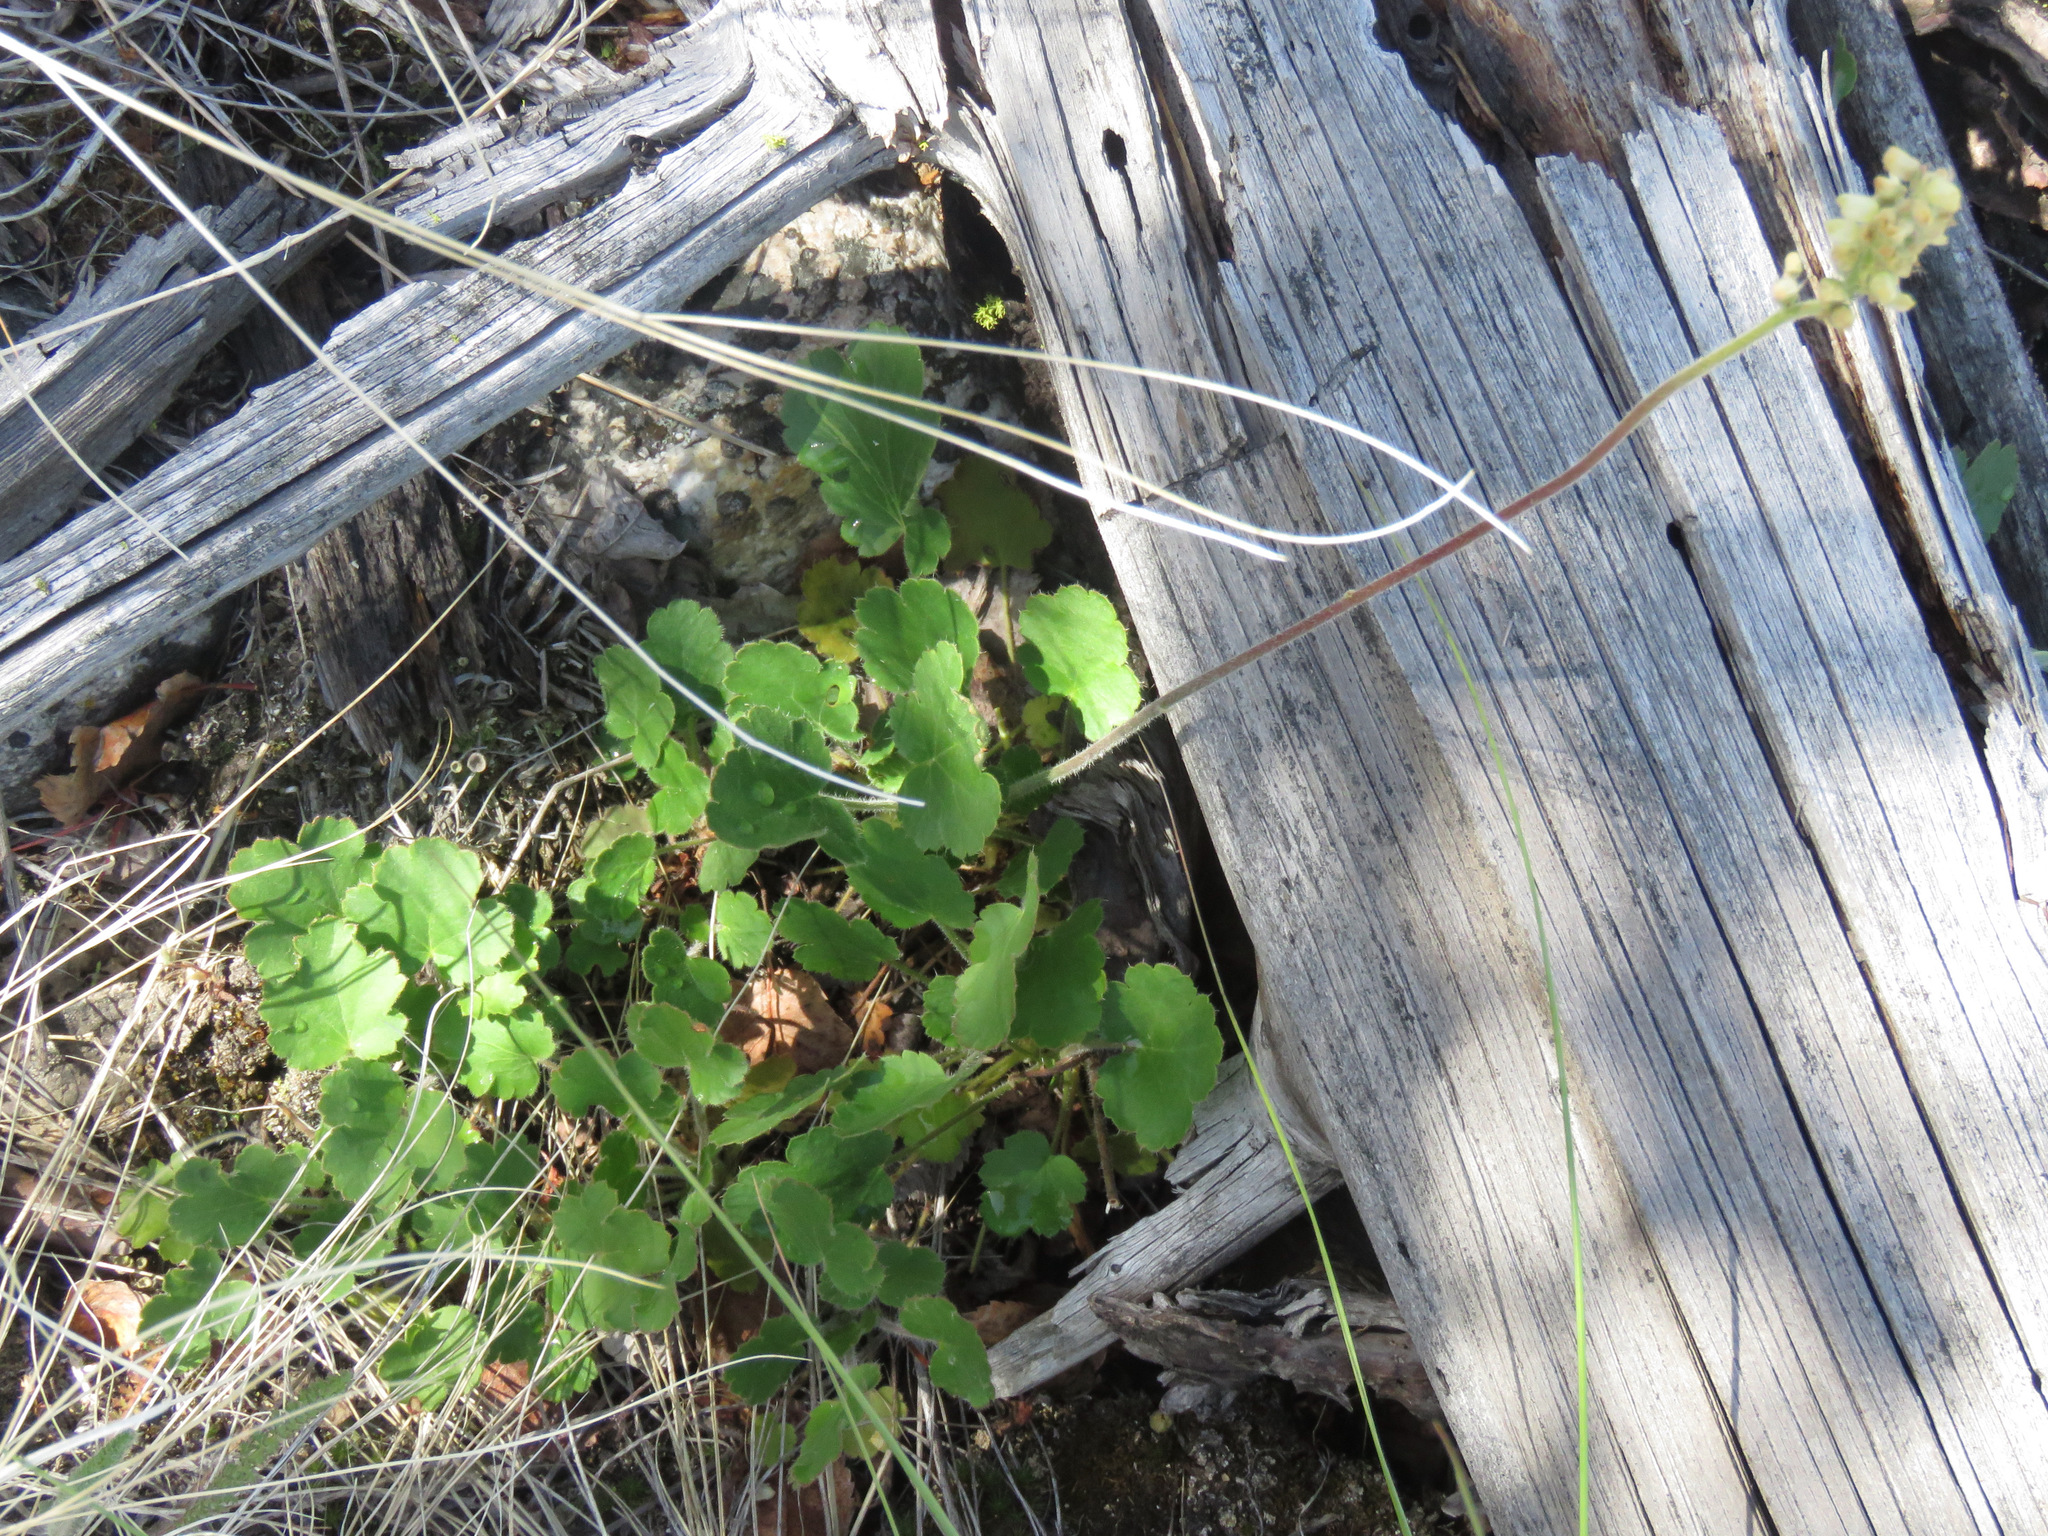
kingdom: Plantae
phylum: Tracheophyta
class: Magnoliopsida
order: Saxifragales
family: Saxifragaceae
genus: Heuchera
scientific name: Heuchera cylindrica
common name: Mat alumroot
